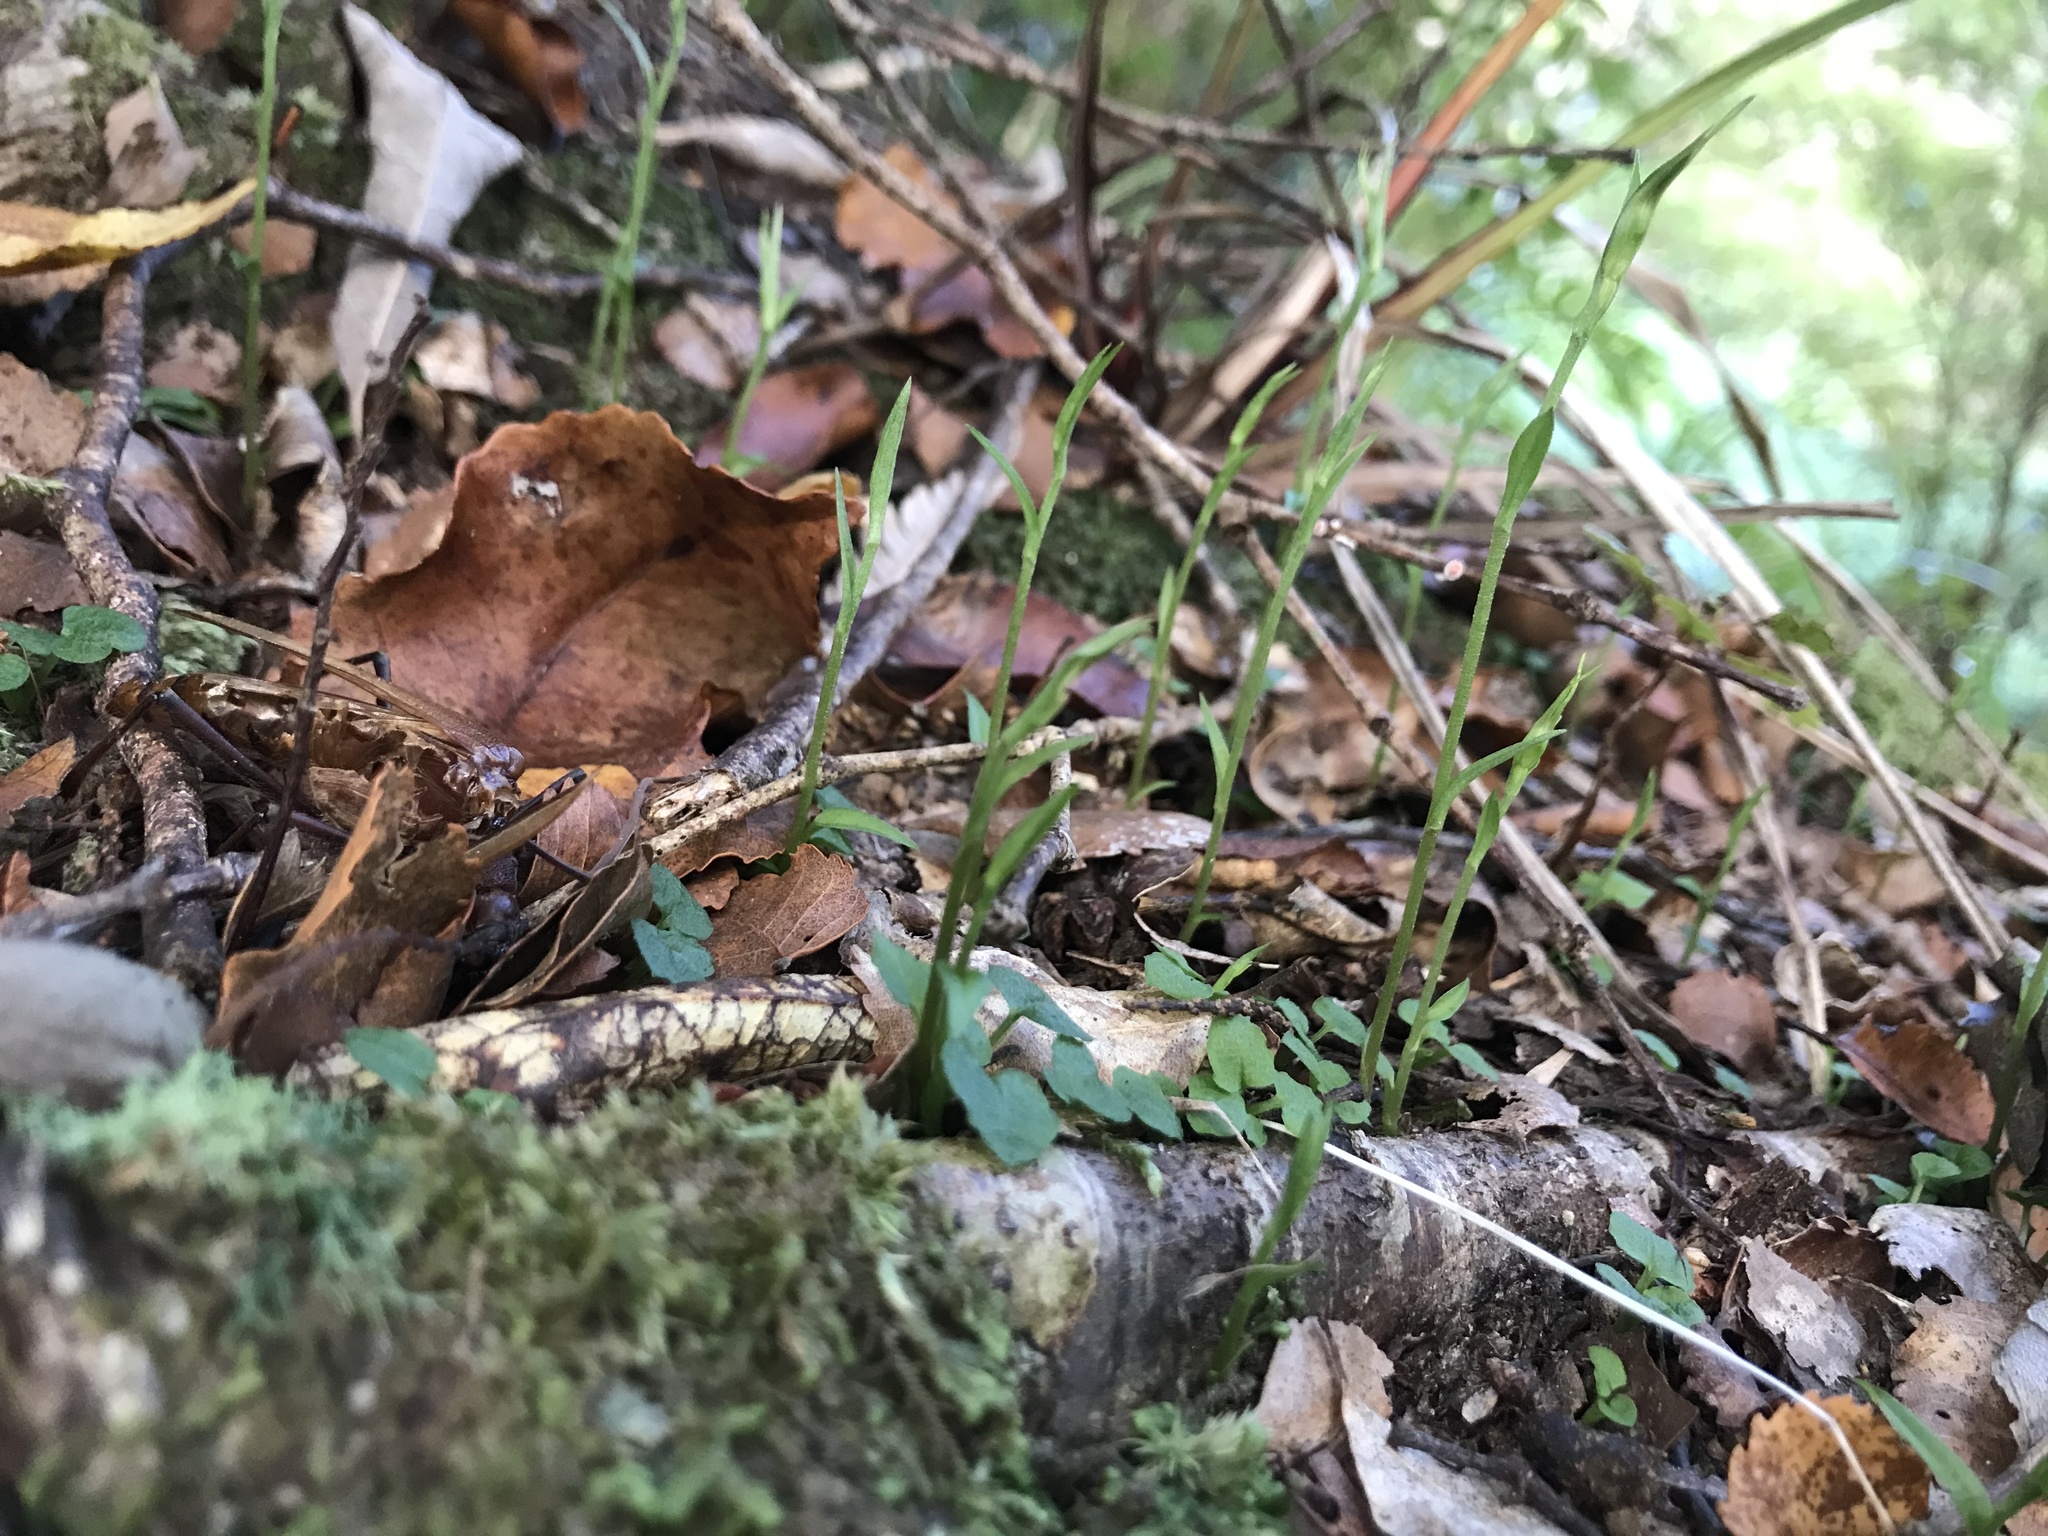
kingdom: Plantae
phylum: Tracheophyta
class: Liliopsida
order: Asparagales
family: Orchidaceae
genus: Pterostylis
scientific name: Pterostylis trullifolia
